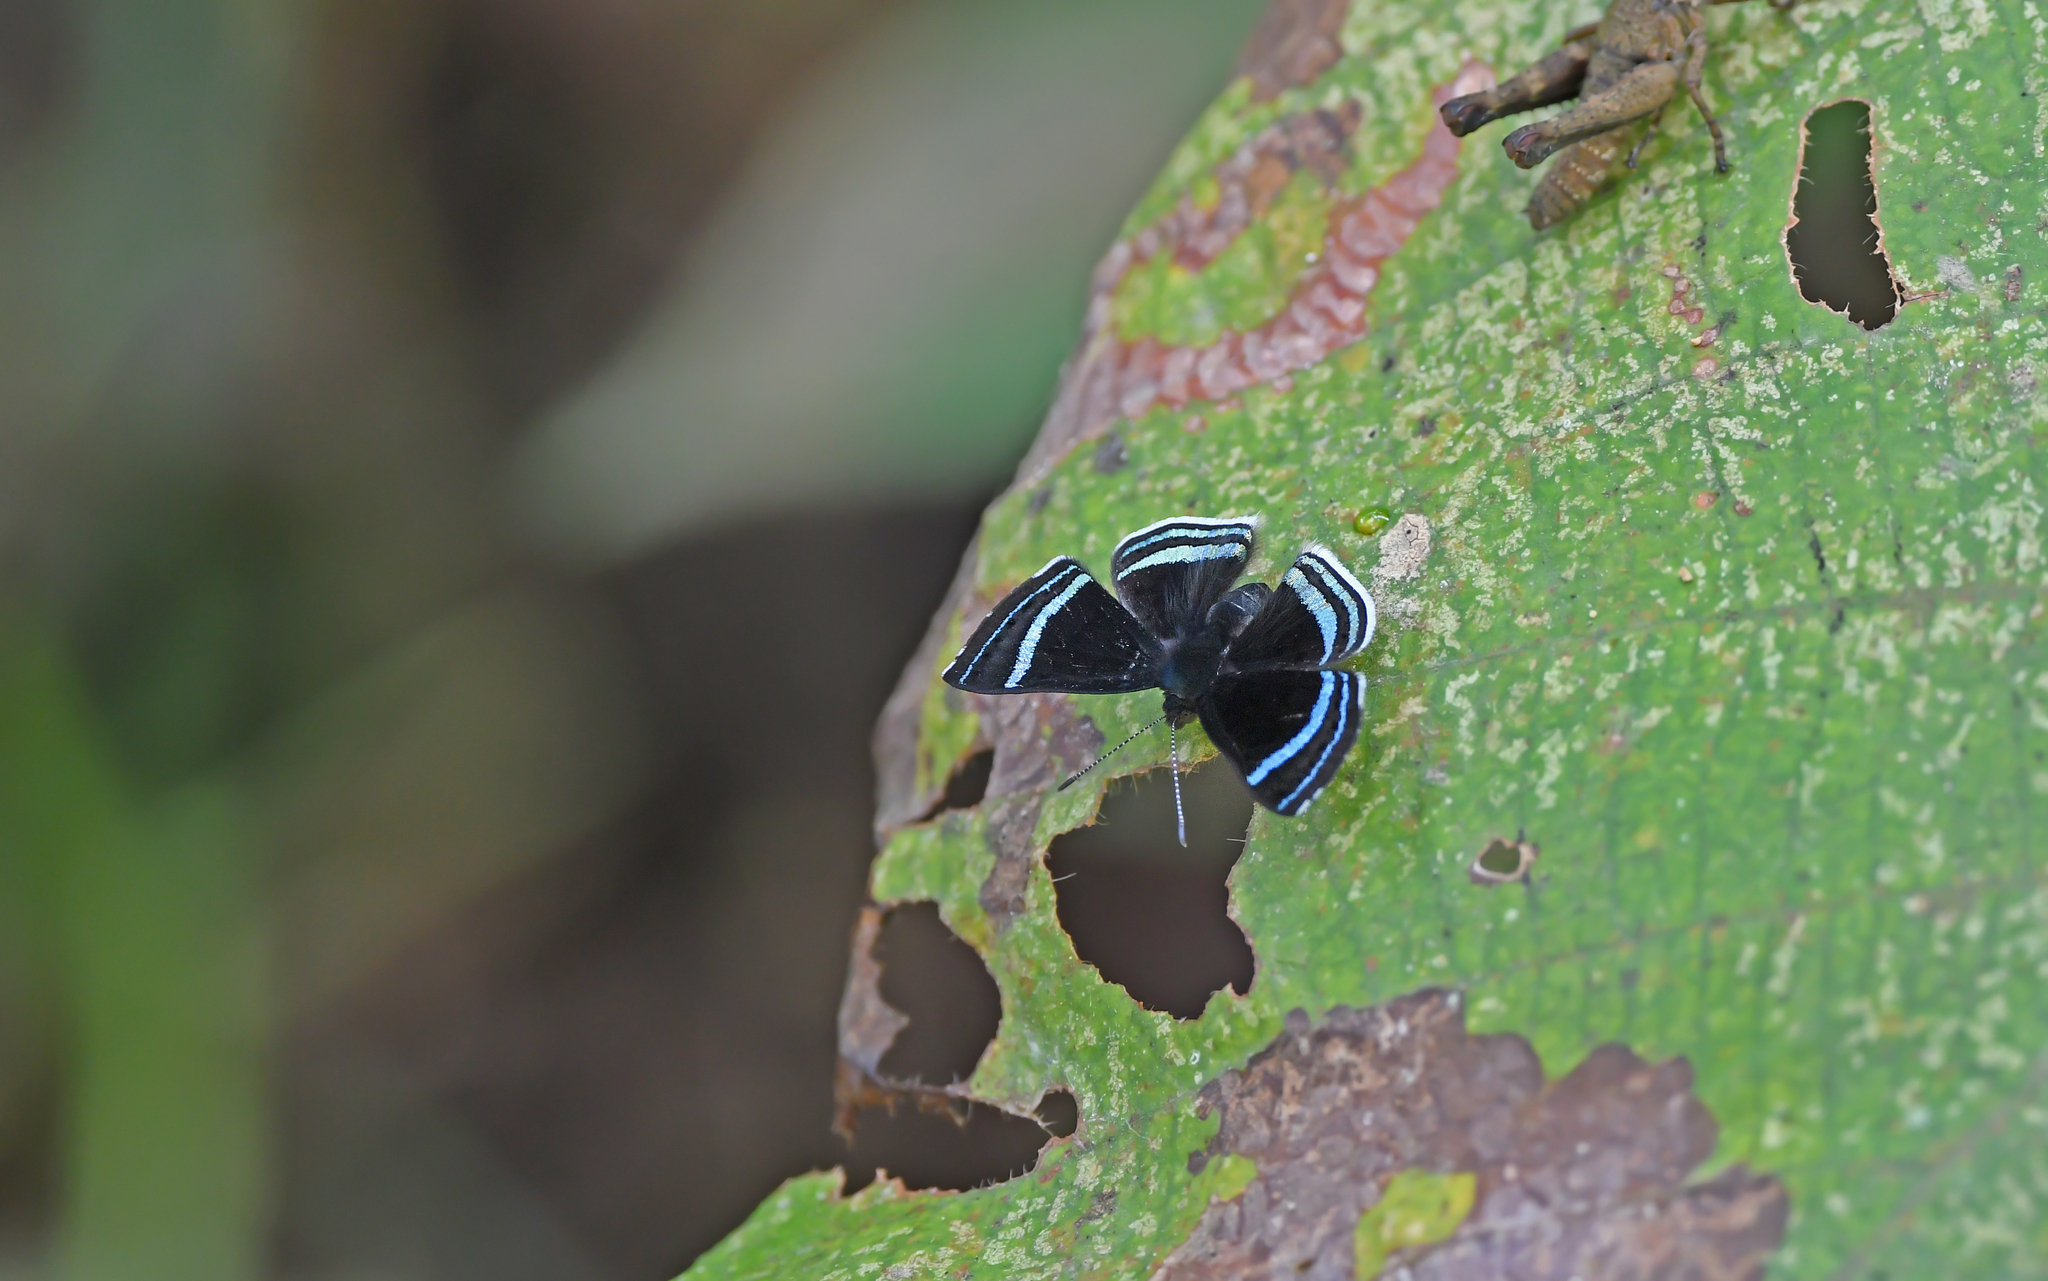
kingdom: Animalia
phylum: Arthropoda
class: Insecta
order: Lepidoptera
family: Riodinidae
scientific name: Riodinidae
